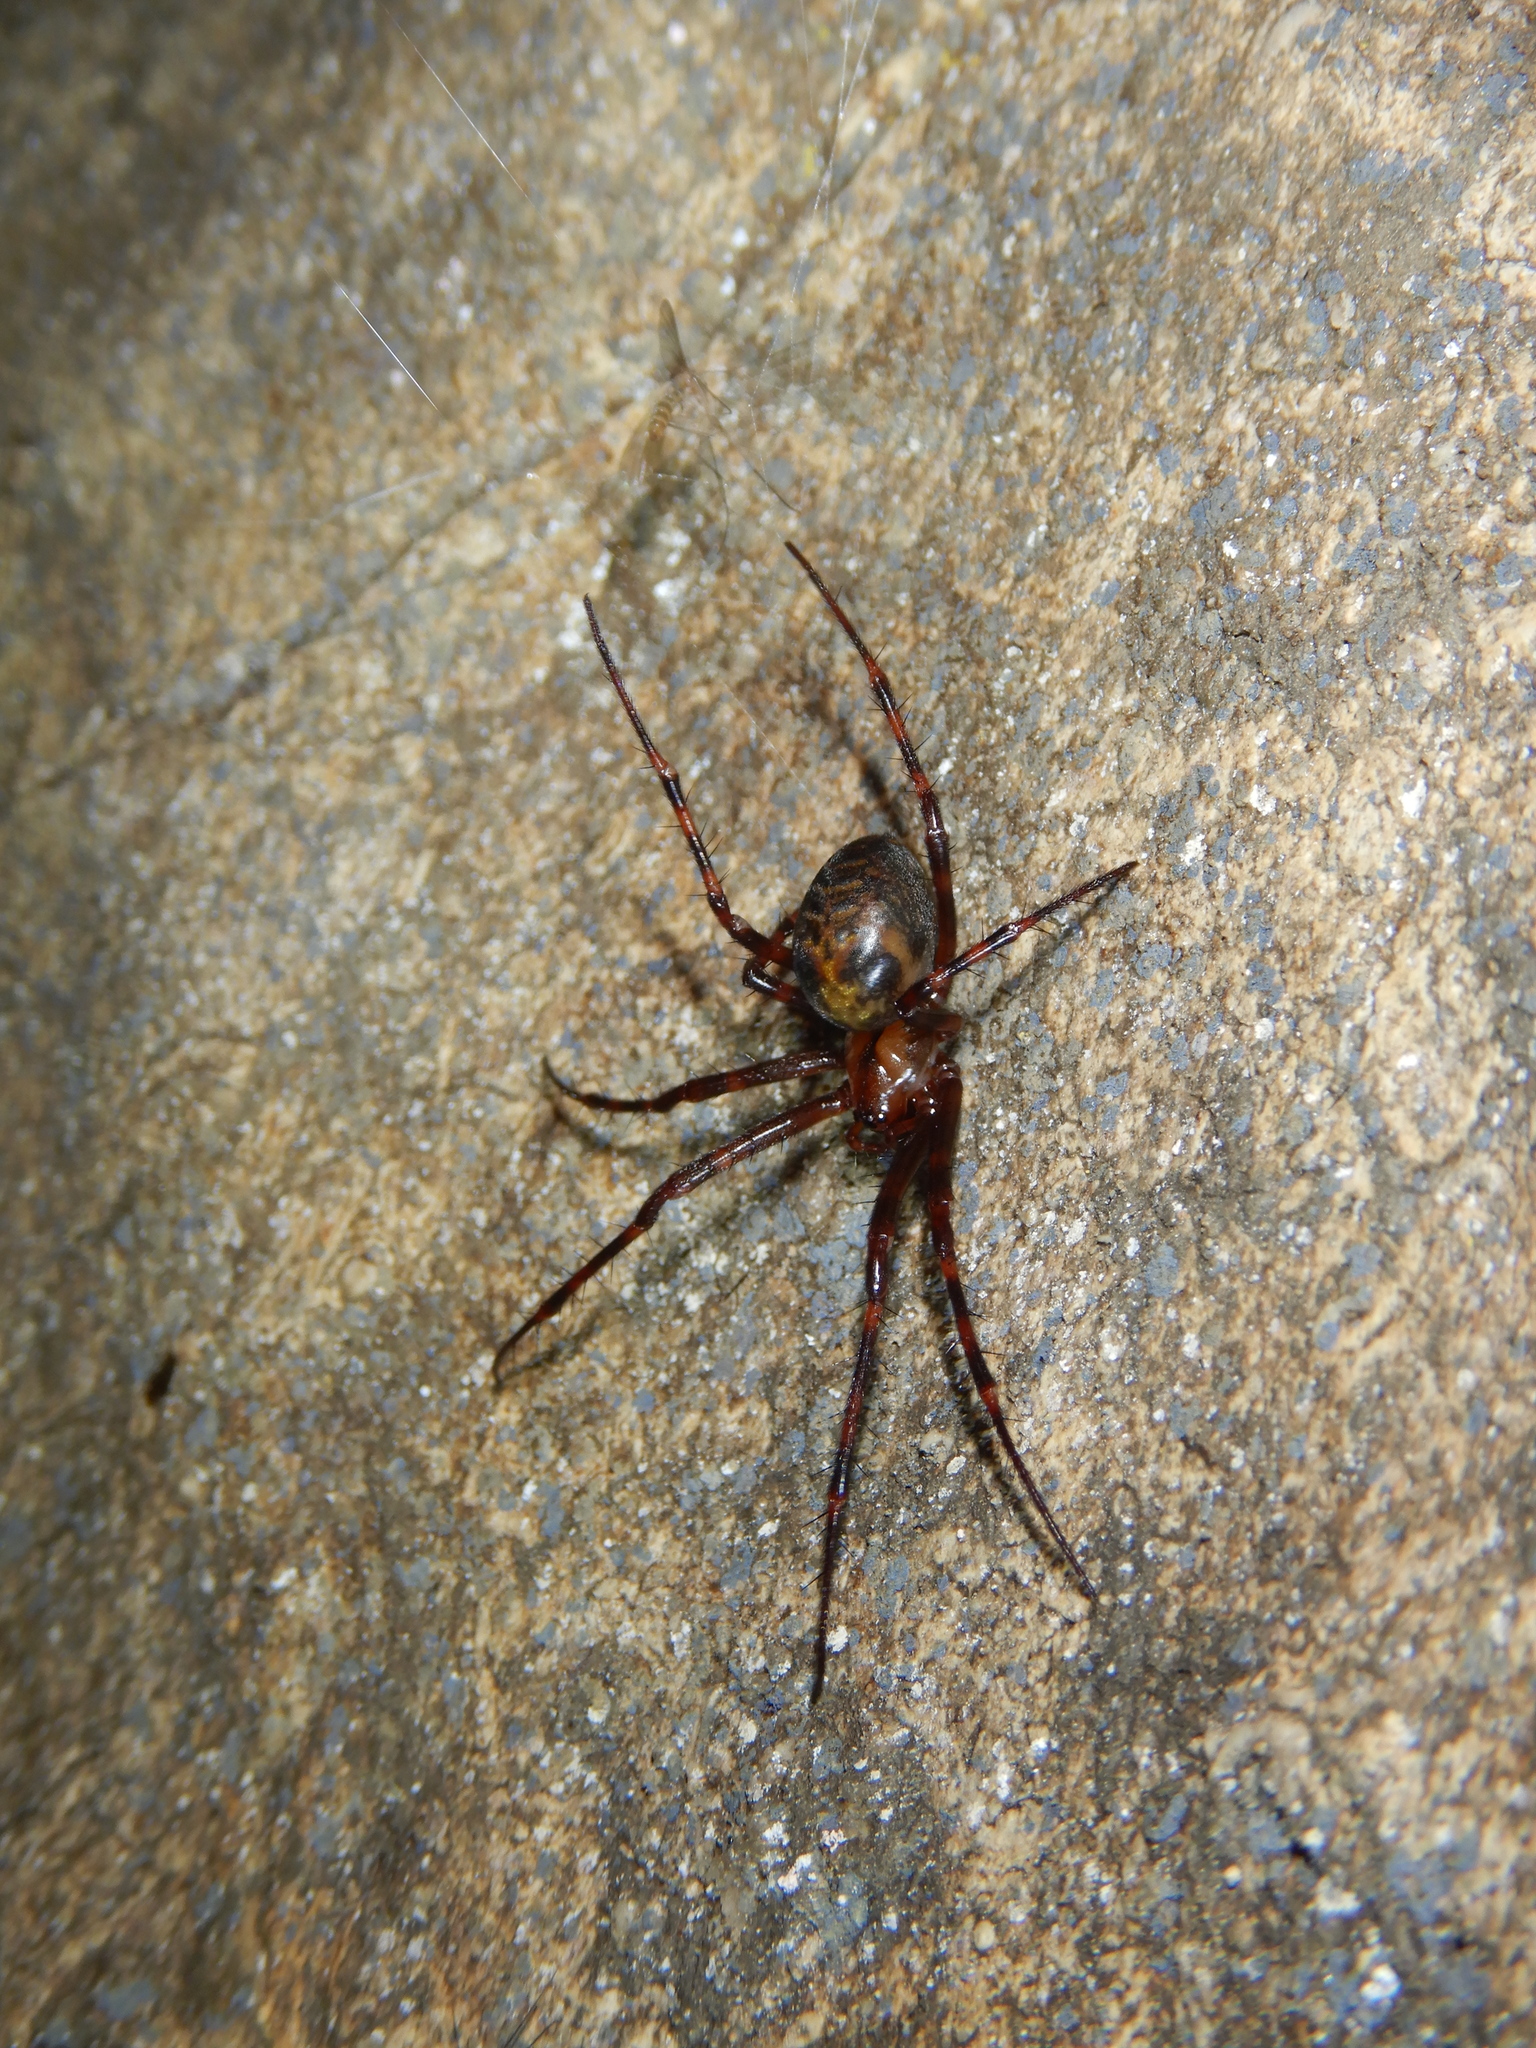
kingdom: Animalia
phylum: Arthropoda
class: Arachnida
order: Araneae
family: Tetragnathidae
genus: Meta
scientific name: Meta menardi
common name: Cave spider
